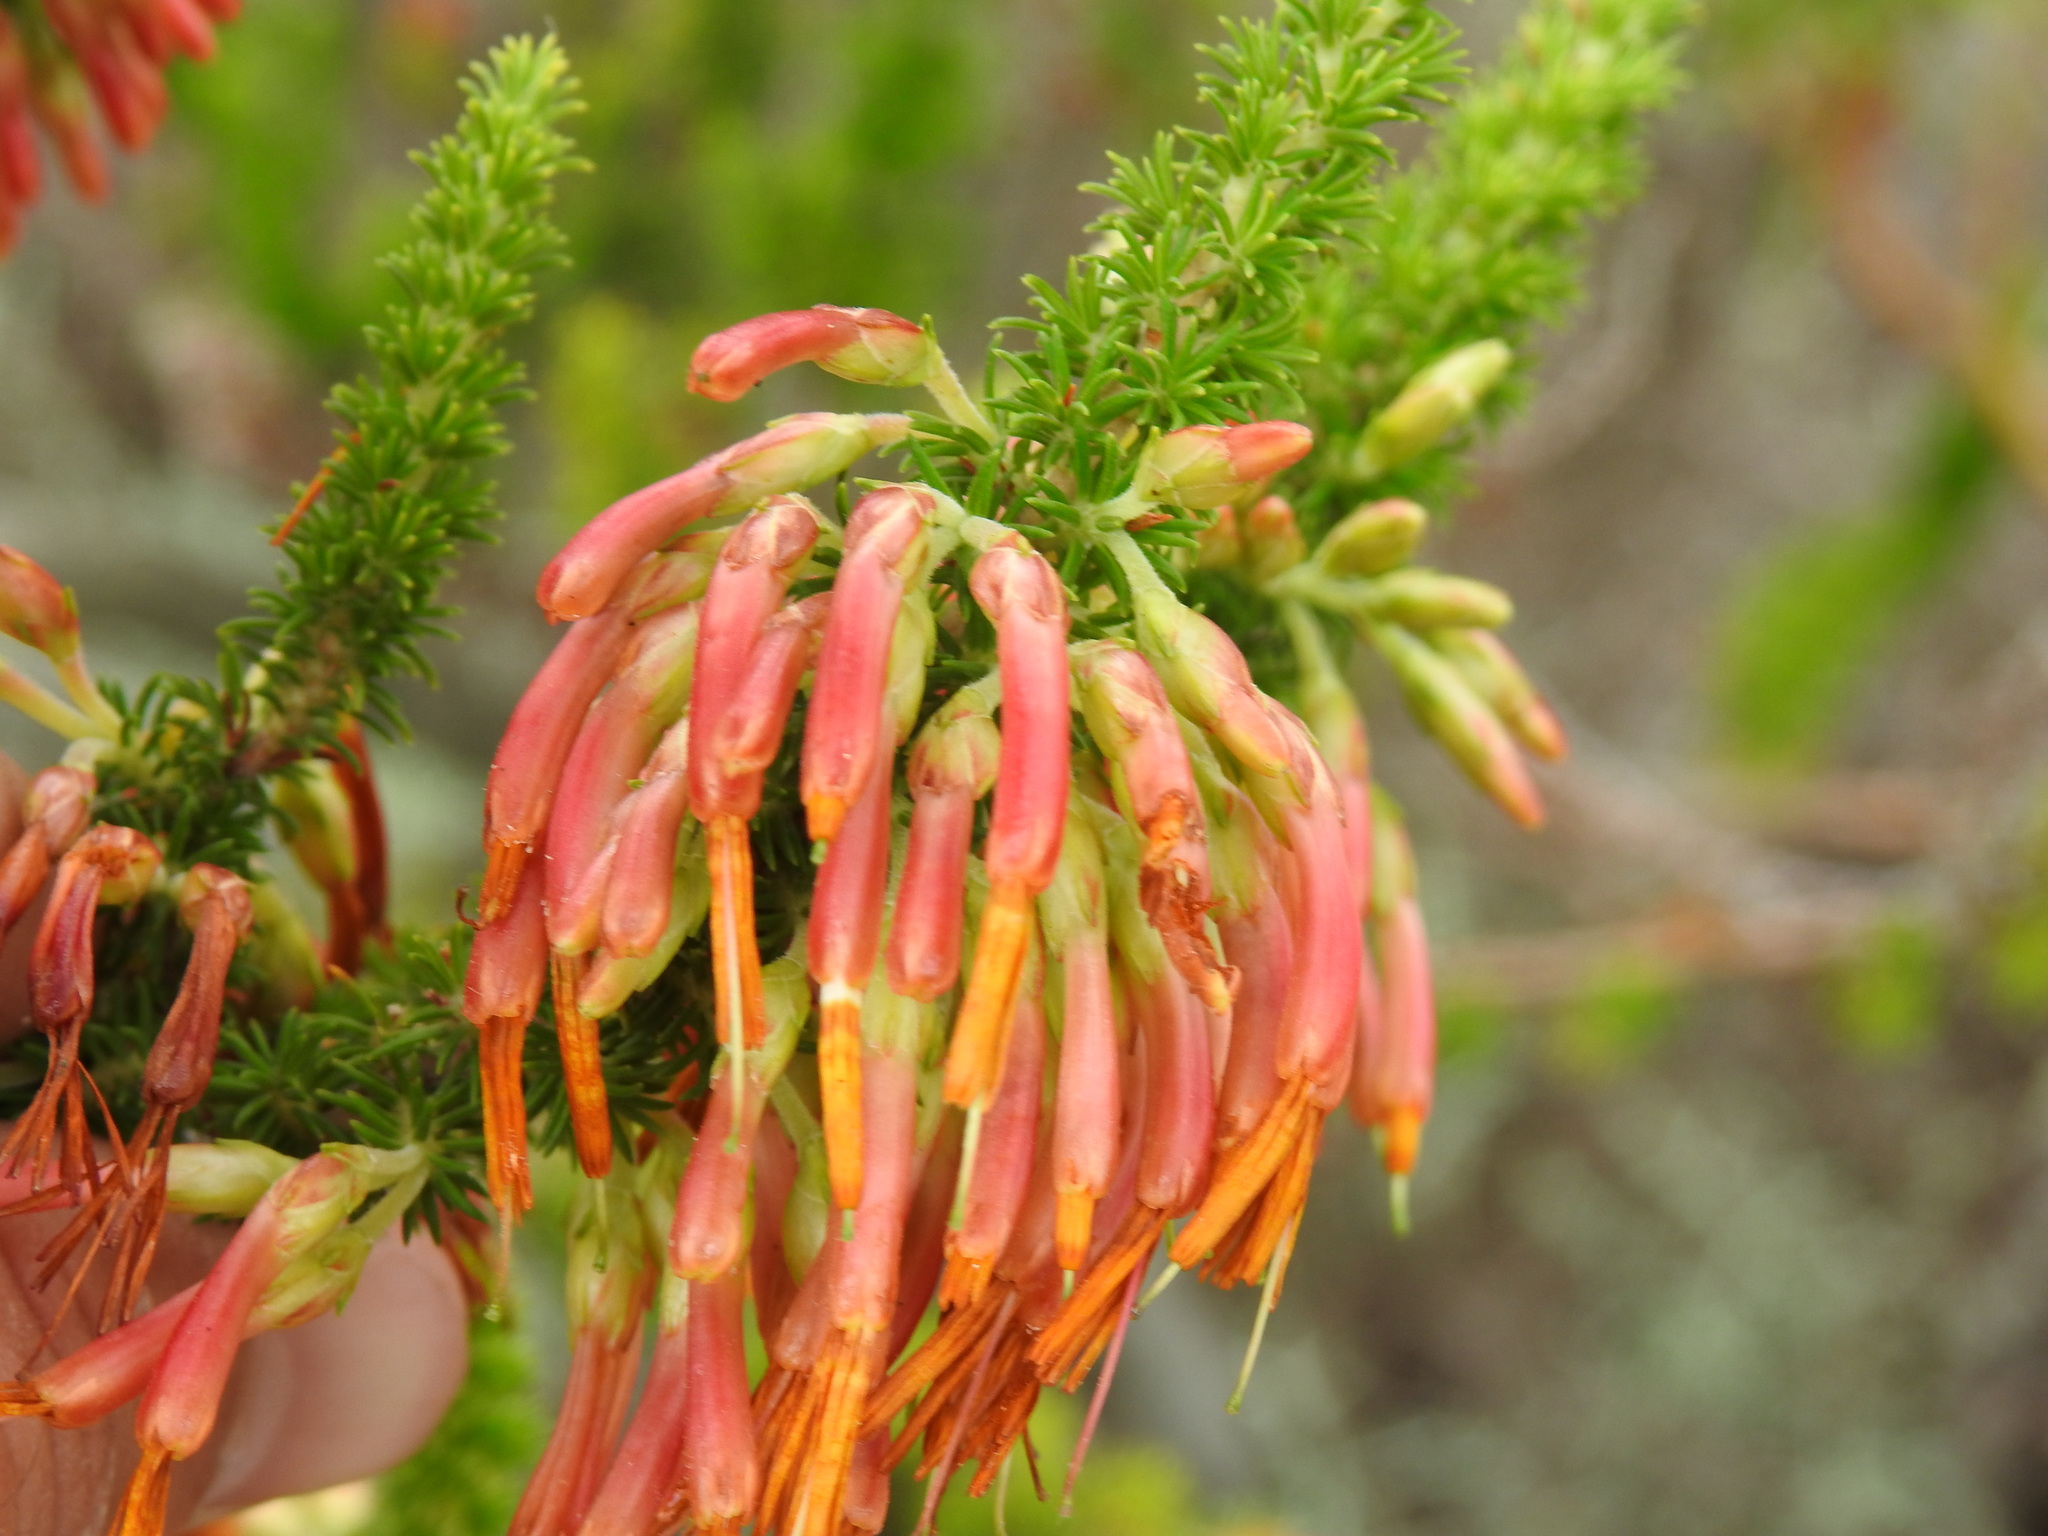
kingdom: Plantae
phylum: Tracheophyta
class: Magnoliopsida
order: Ericales
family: Ericaceae
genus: Erica
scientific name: Erica coccinea
